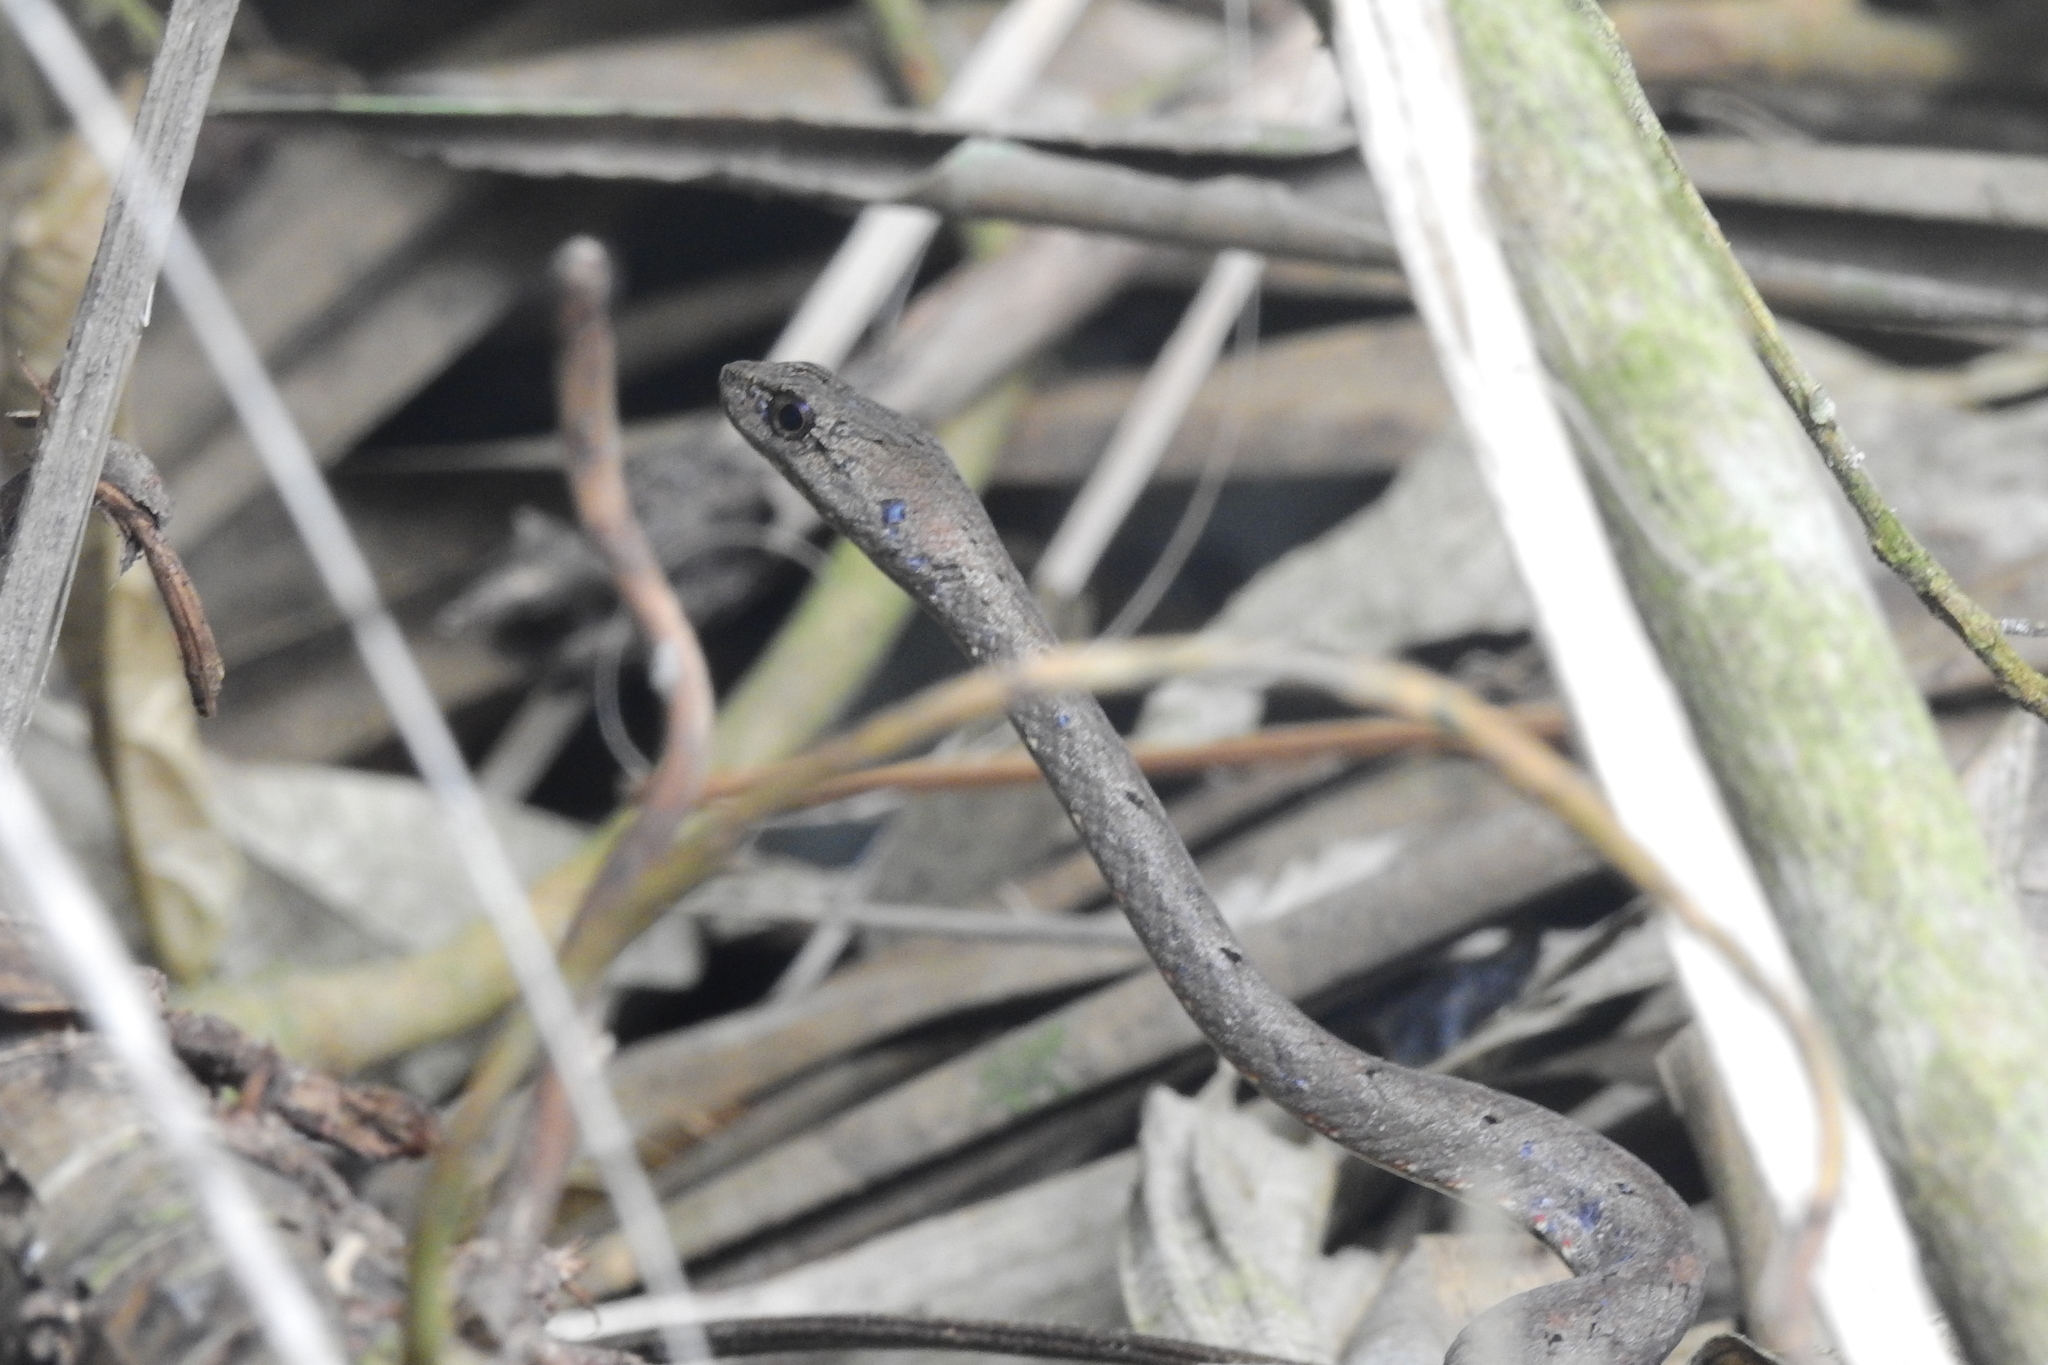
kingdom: Animalia
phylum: Chordata
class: Squamata
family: Pseudaspididae
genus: Psammodynastes
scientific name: Psammodynastes pulverulentus
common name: Common mock viper
